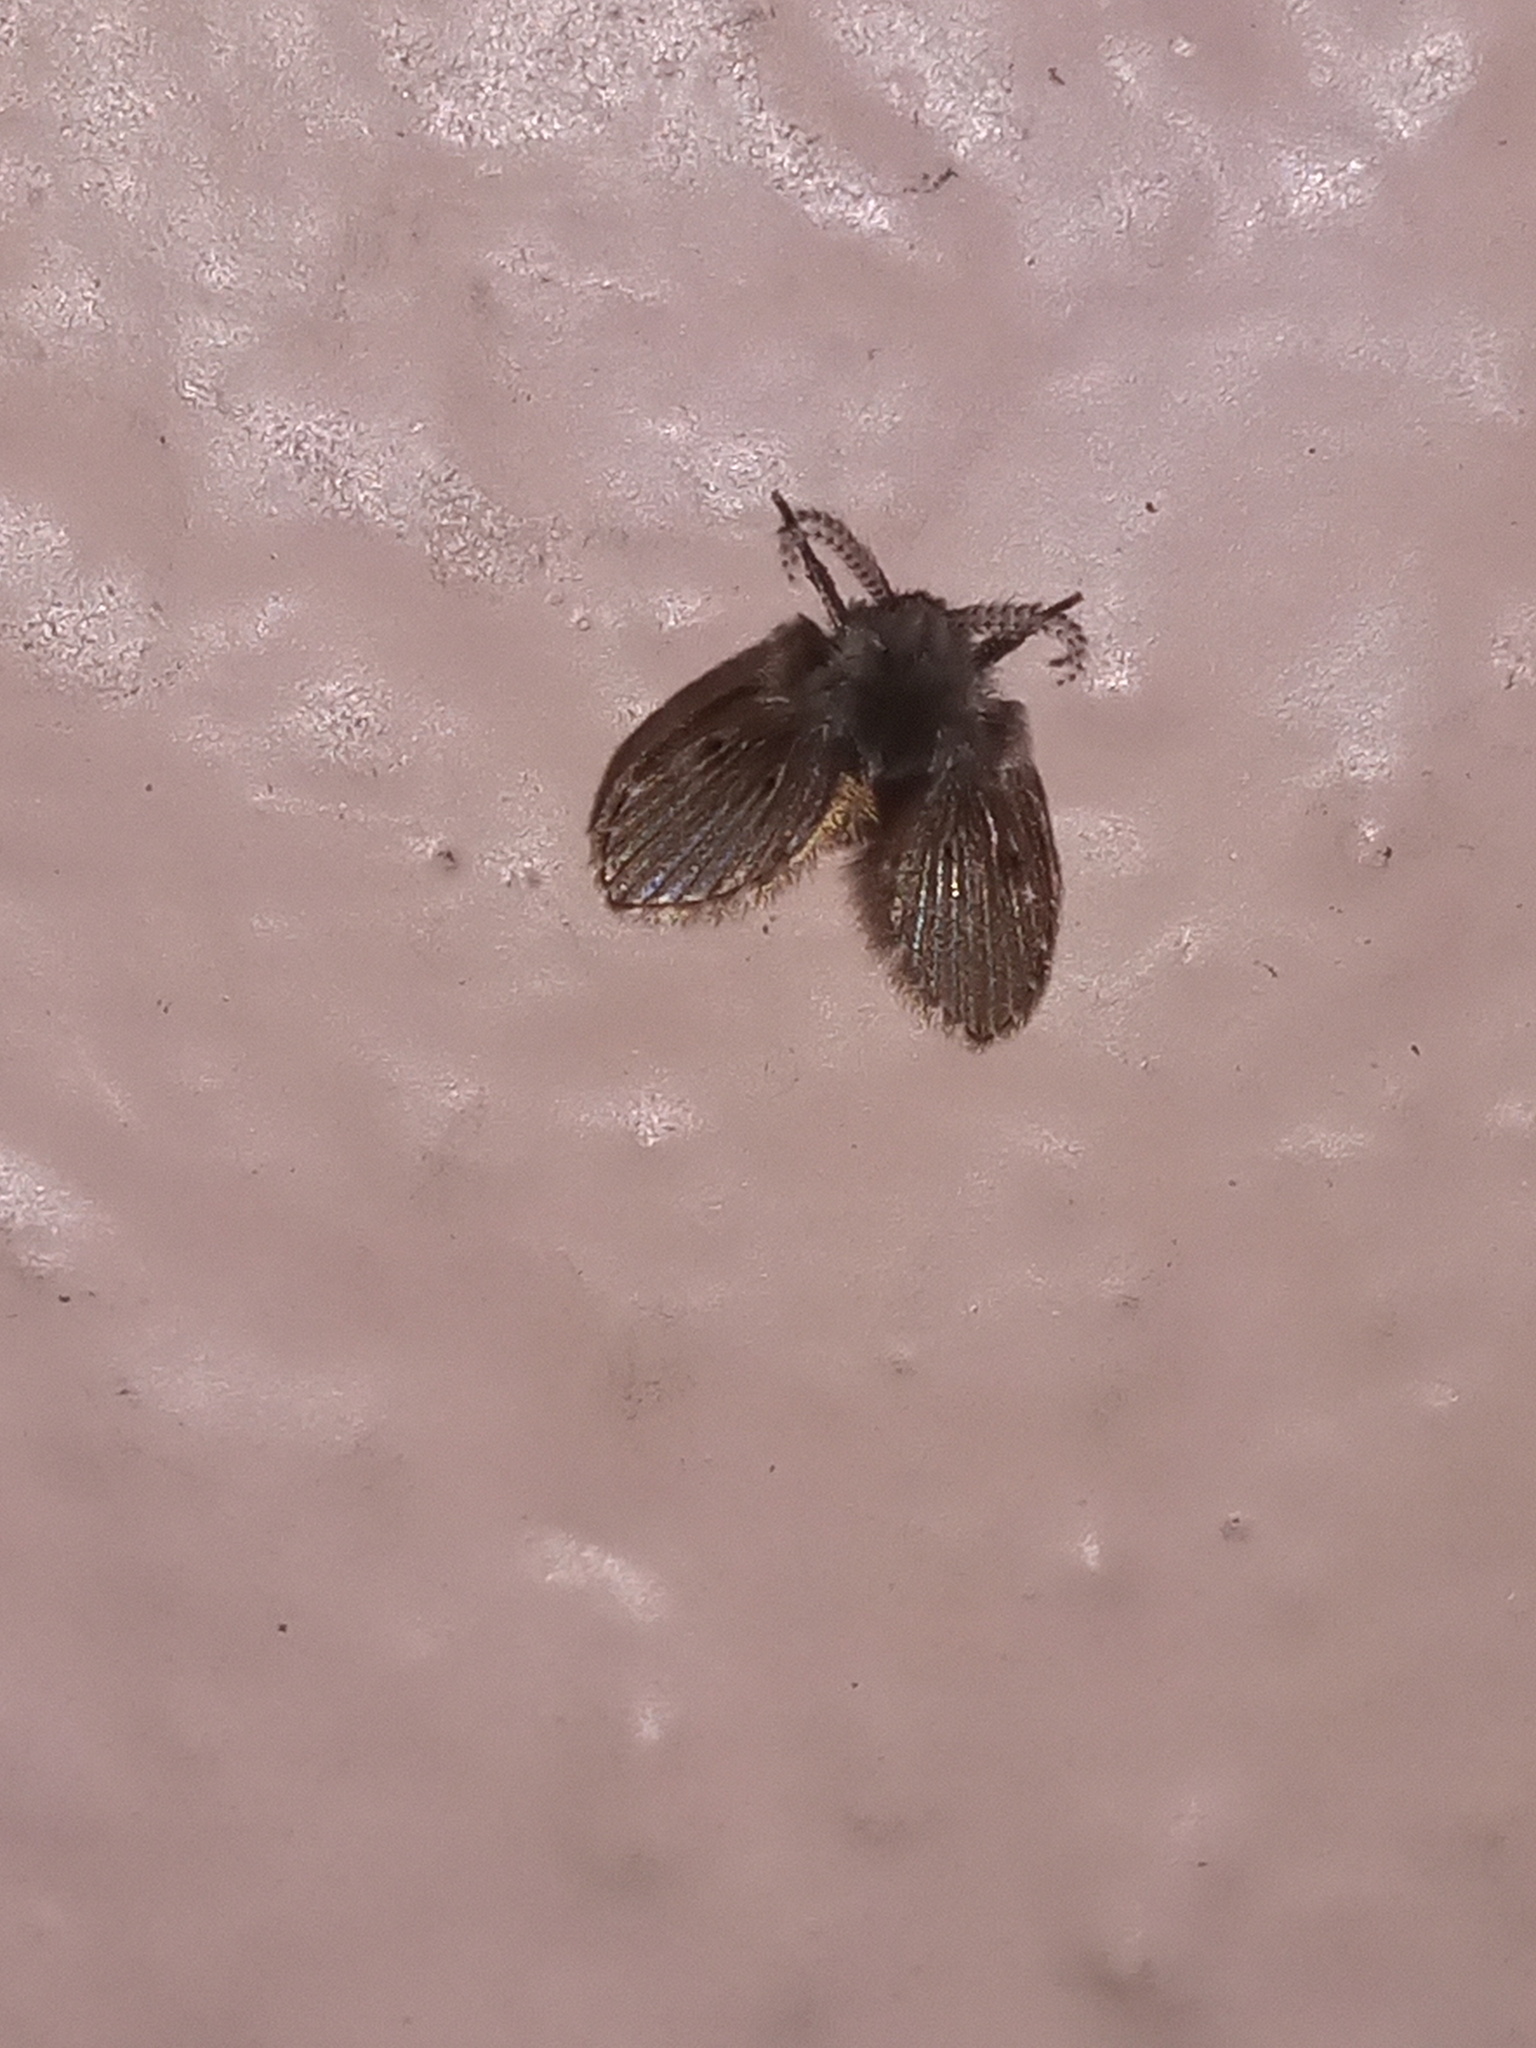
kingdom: Animalia
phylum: Arthropoda
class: Insecta
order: Diptera
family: Psychodidae
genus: Clogmia
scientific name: Clogmia albipunctatus
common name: White-spotted moth fly
